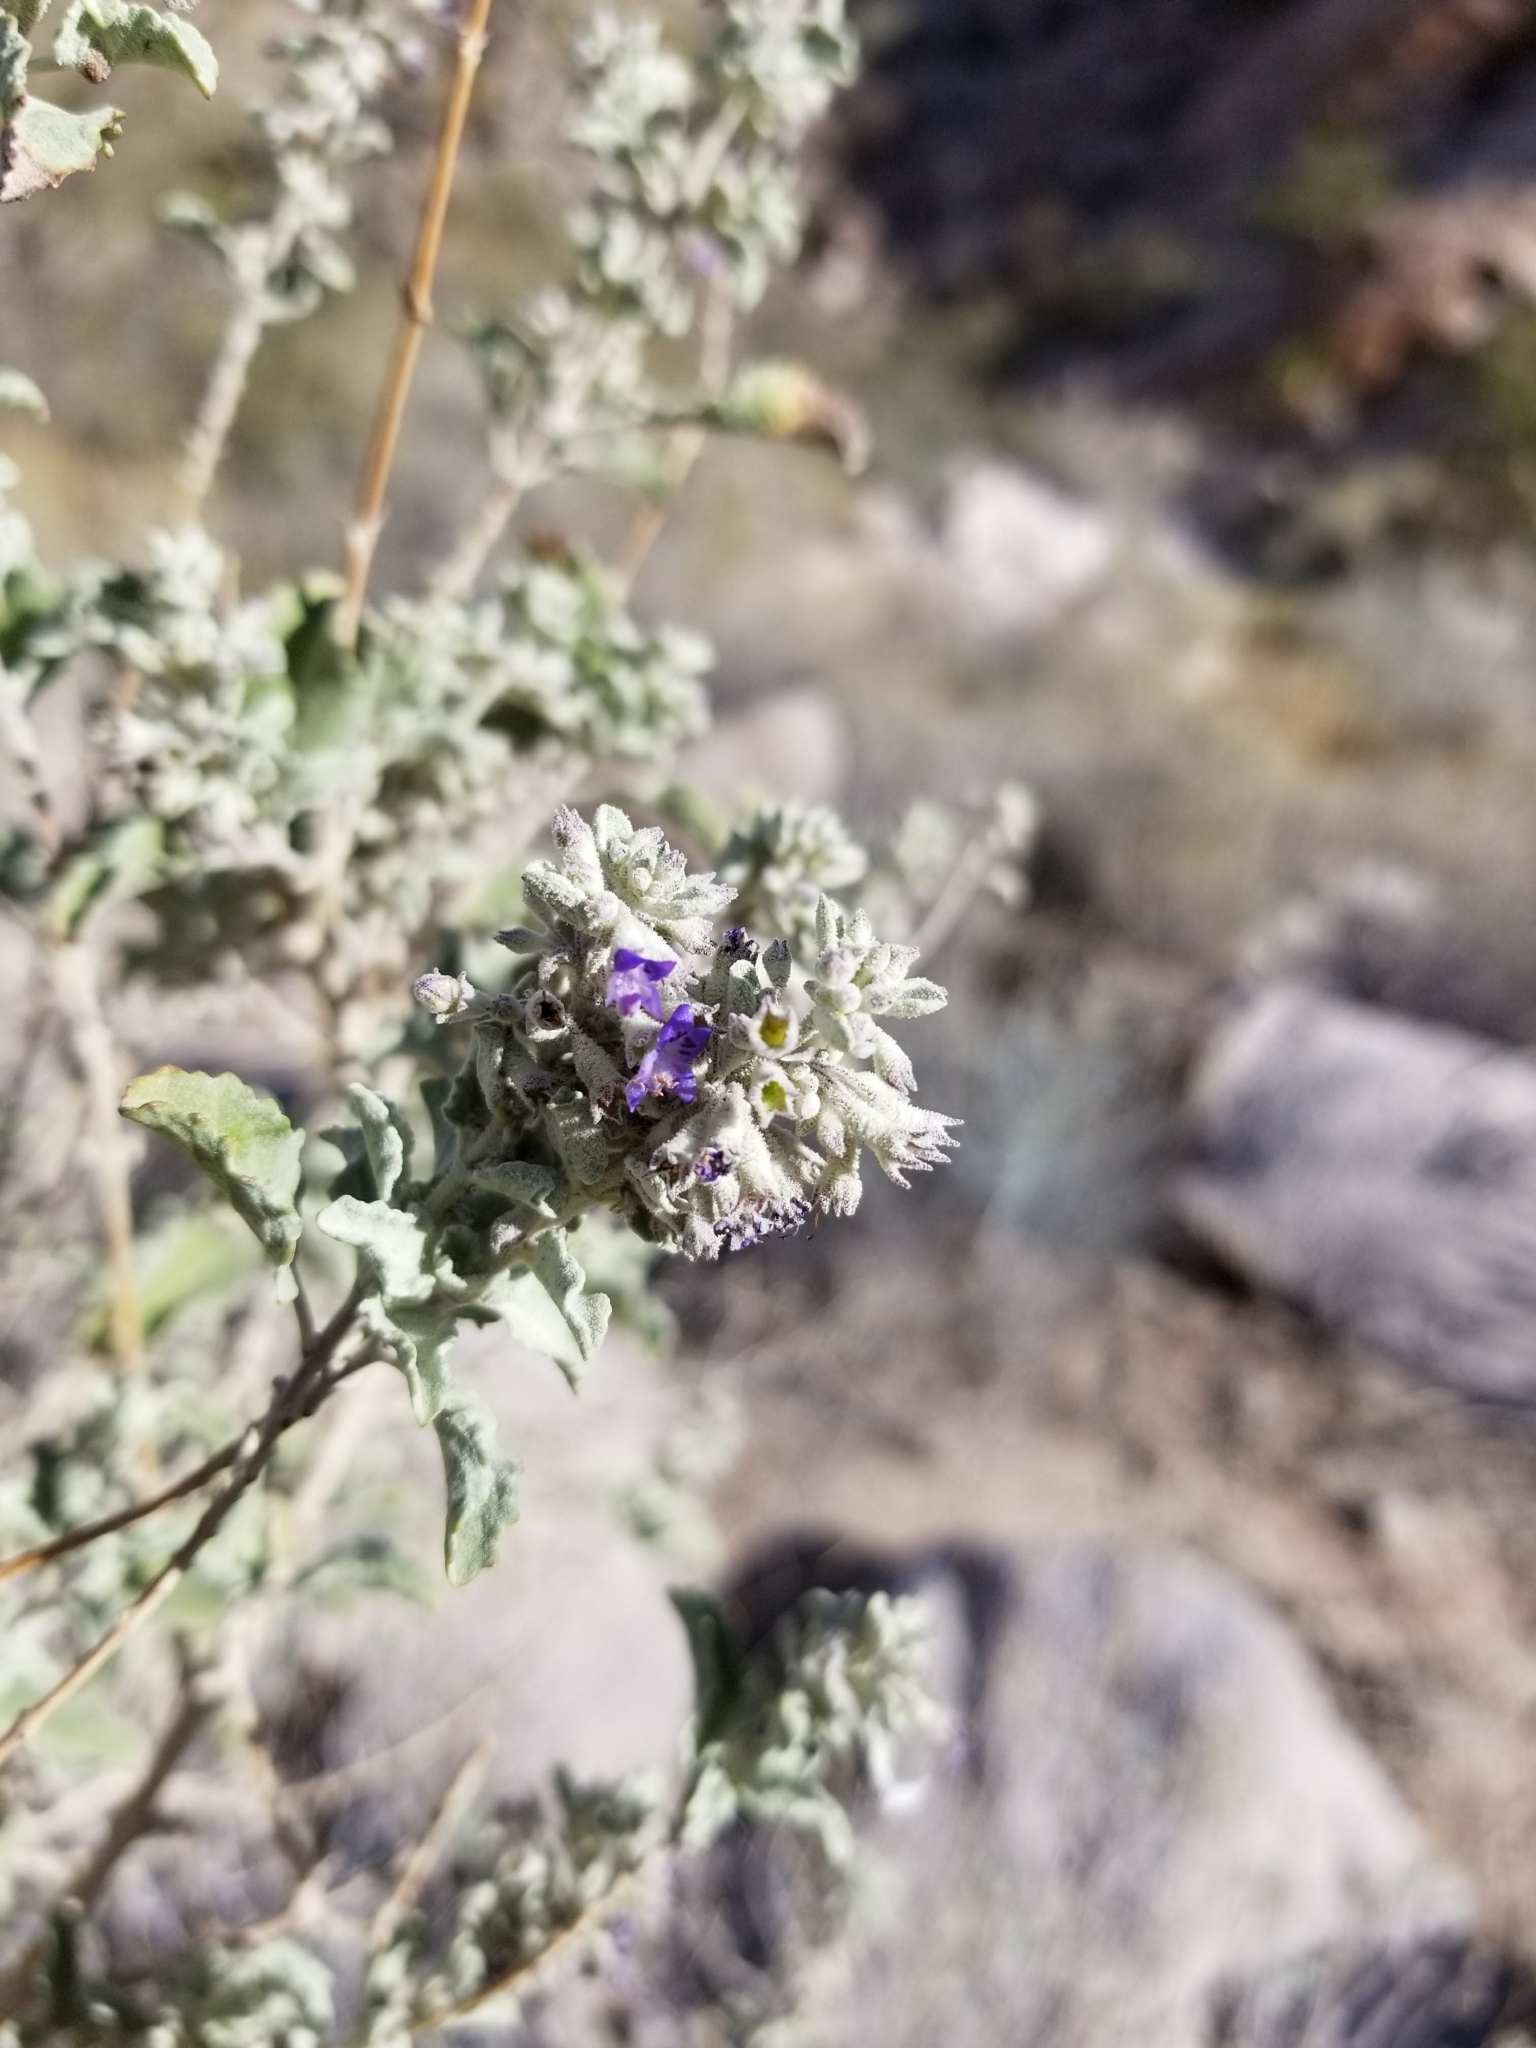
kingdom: Plantae
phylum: Tracheophyta
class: Magnoliopsida
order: Lamiales
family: Lamiaceae
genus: Condea
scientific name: Condea emoryi
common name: Chia
